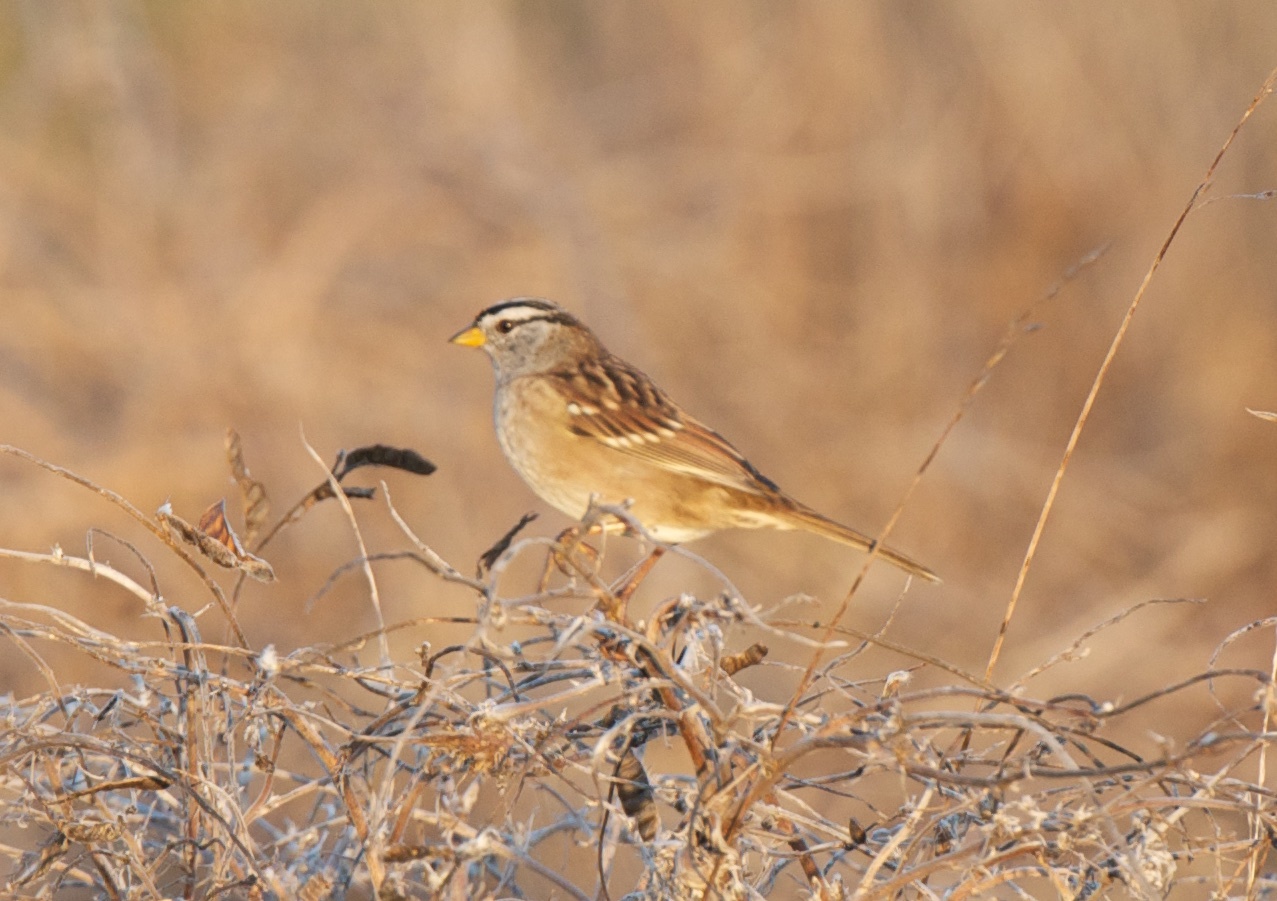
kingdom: Animalia
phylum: Chordata
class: Aves
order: Passeriformes
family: Passerellidae
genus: Zonotrichia
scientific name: Zonotrichia leucophrys
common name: White-crowned sparrow
